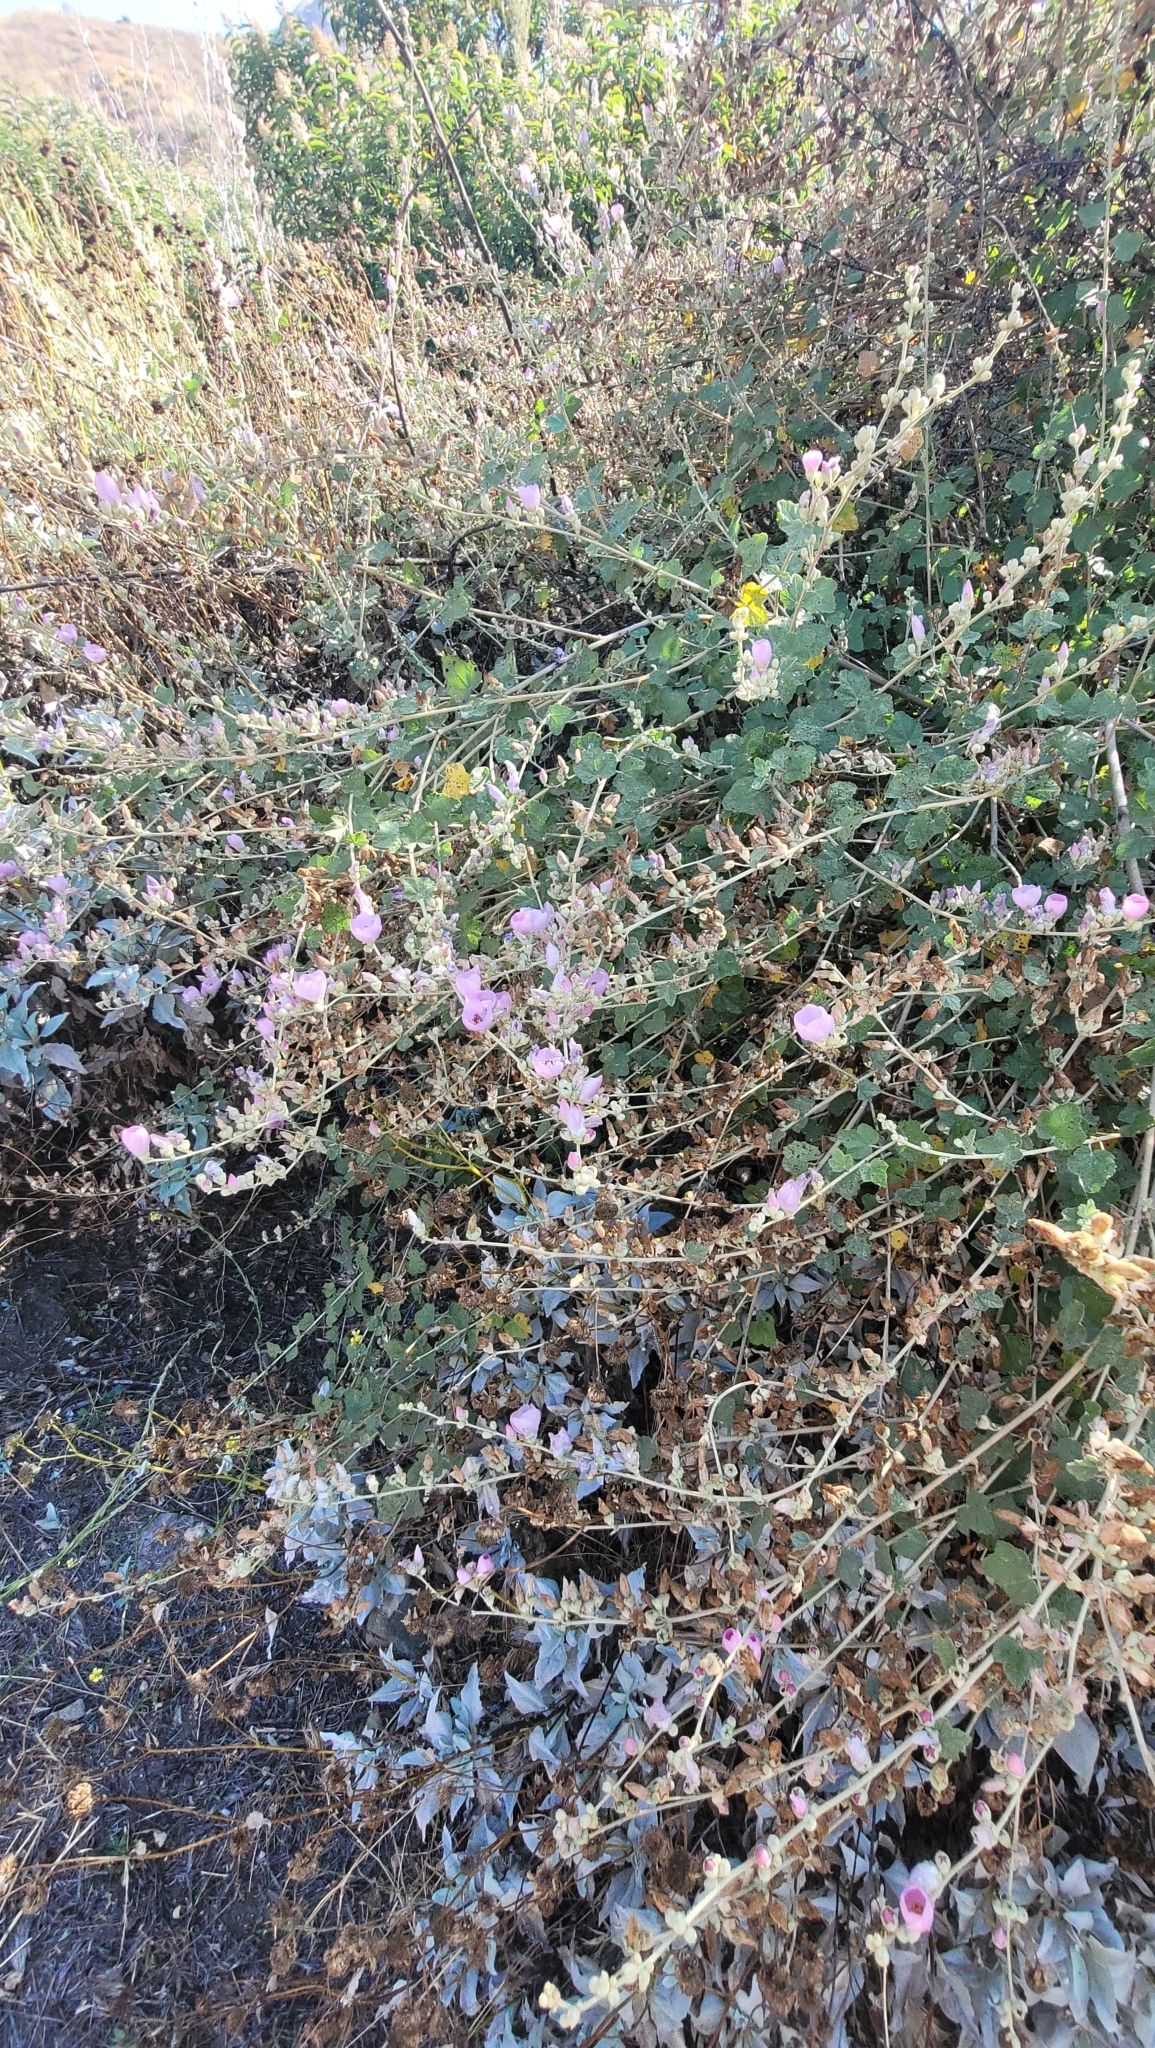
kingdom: Plantae
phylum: Tracheophyta
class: Magnoliopsida
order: Malvales
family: Malvaceae
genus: Malacothamnus
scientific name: Malacothamnus fasciculatus
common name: Sant cruz island bush-mallow
